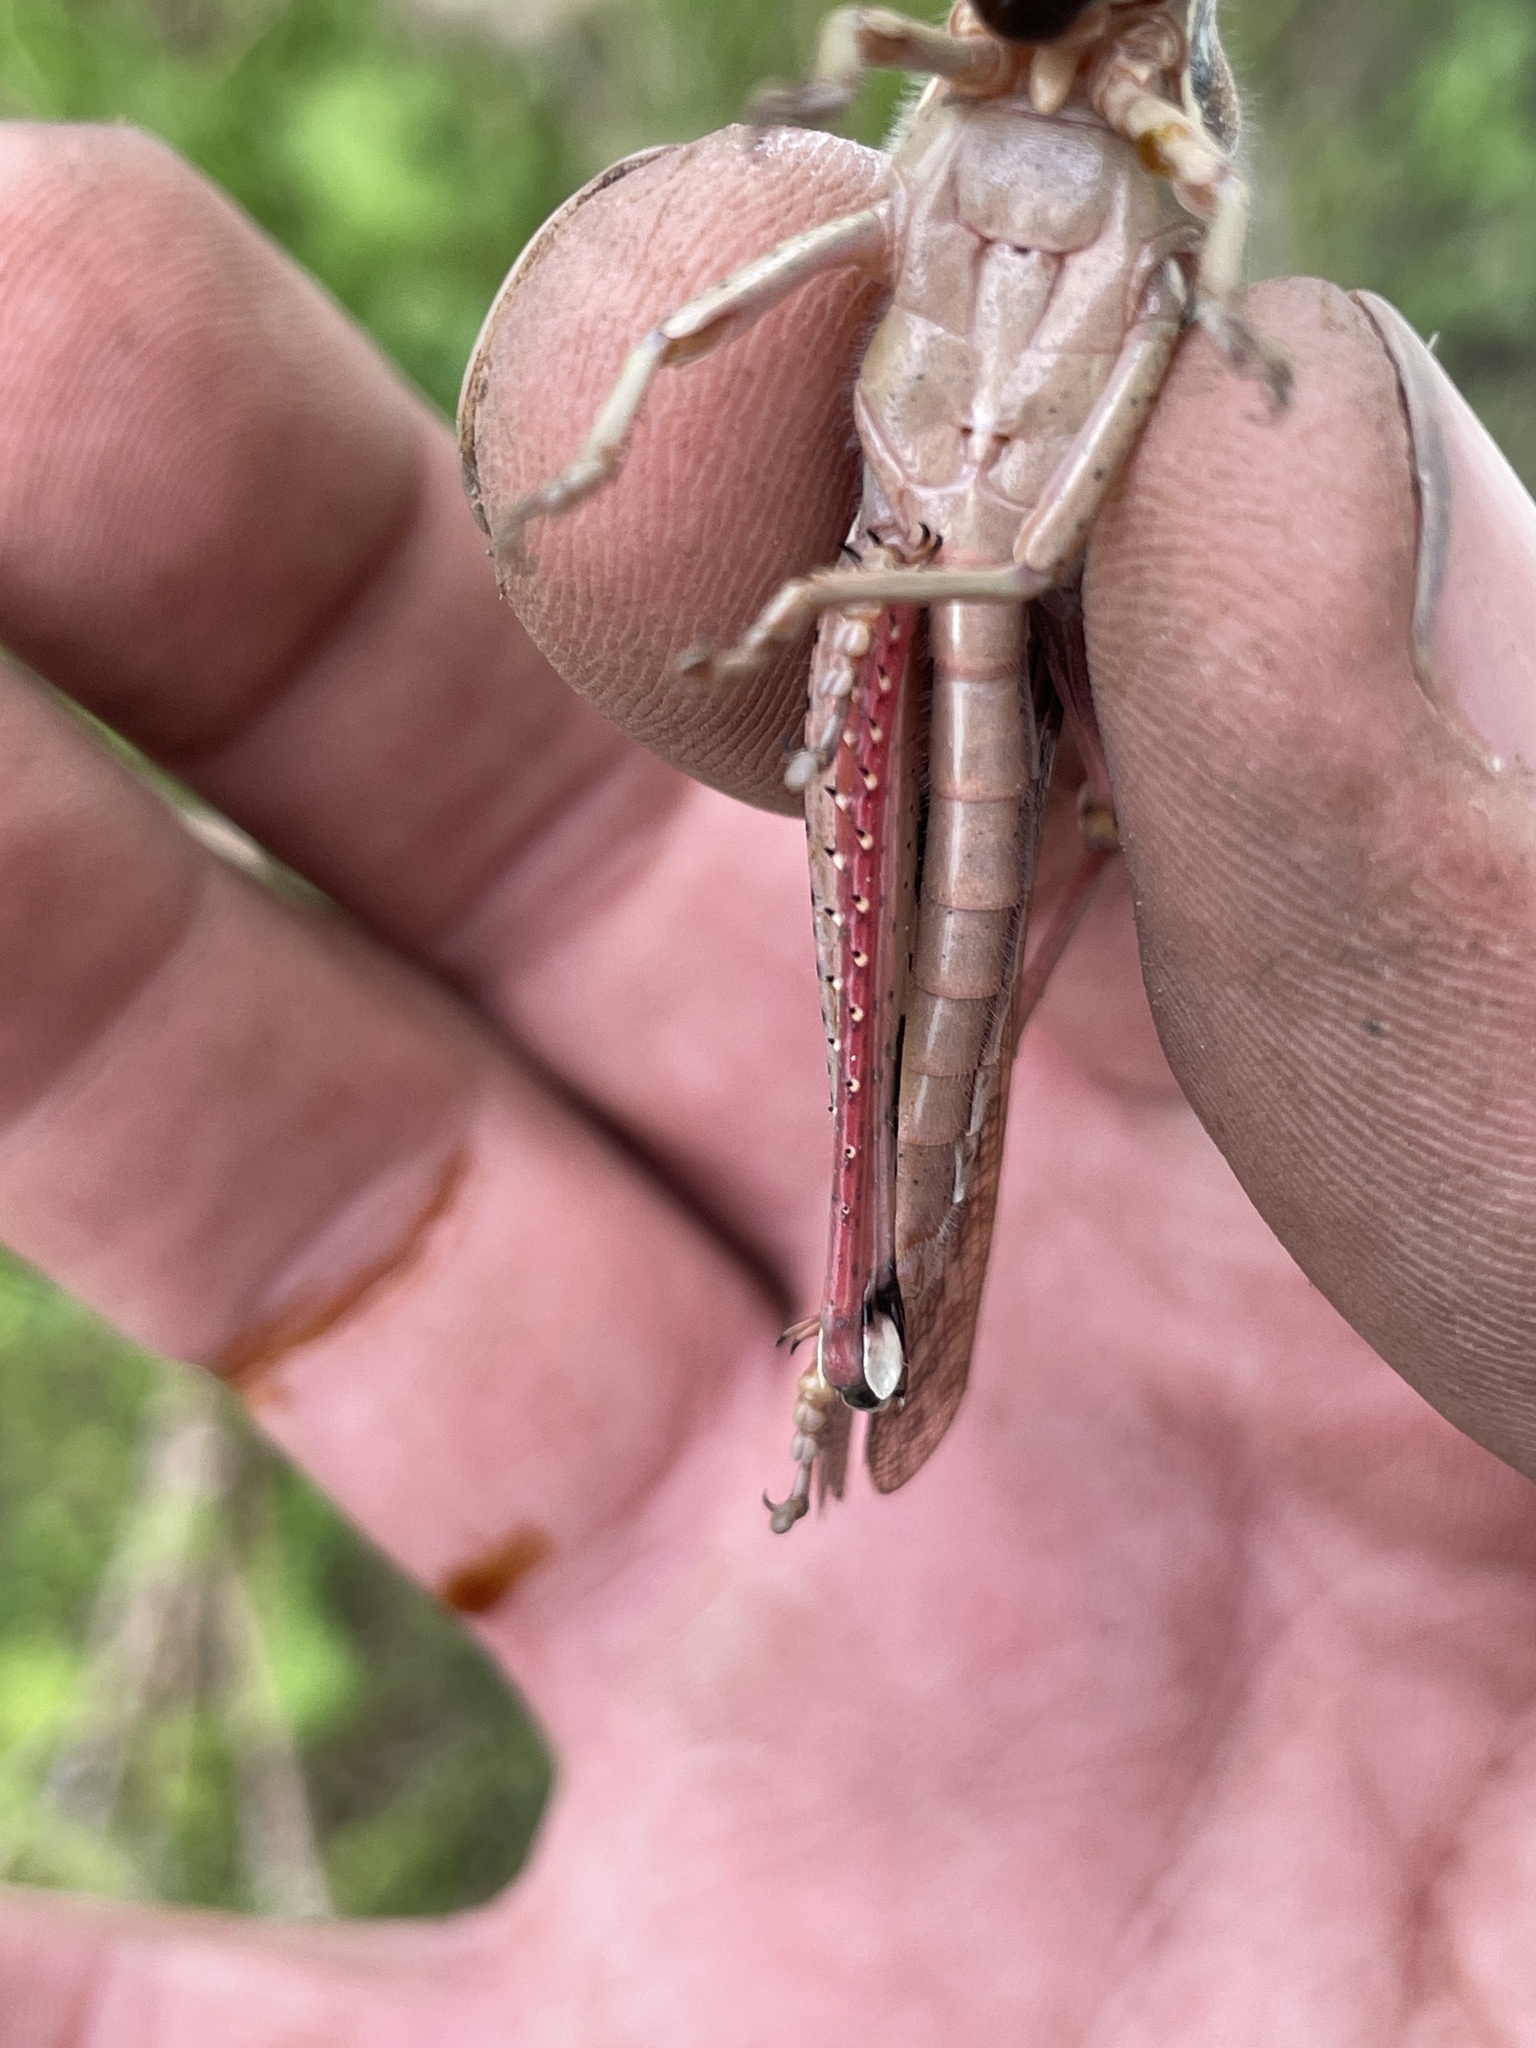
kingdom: Animalia
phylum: Arthropoda
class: Insecta
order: Orthoptera
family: Acrididae
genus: Schistocerca
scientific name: Schistocerca americana
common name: American bird locust
